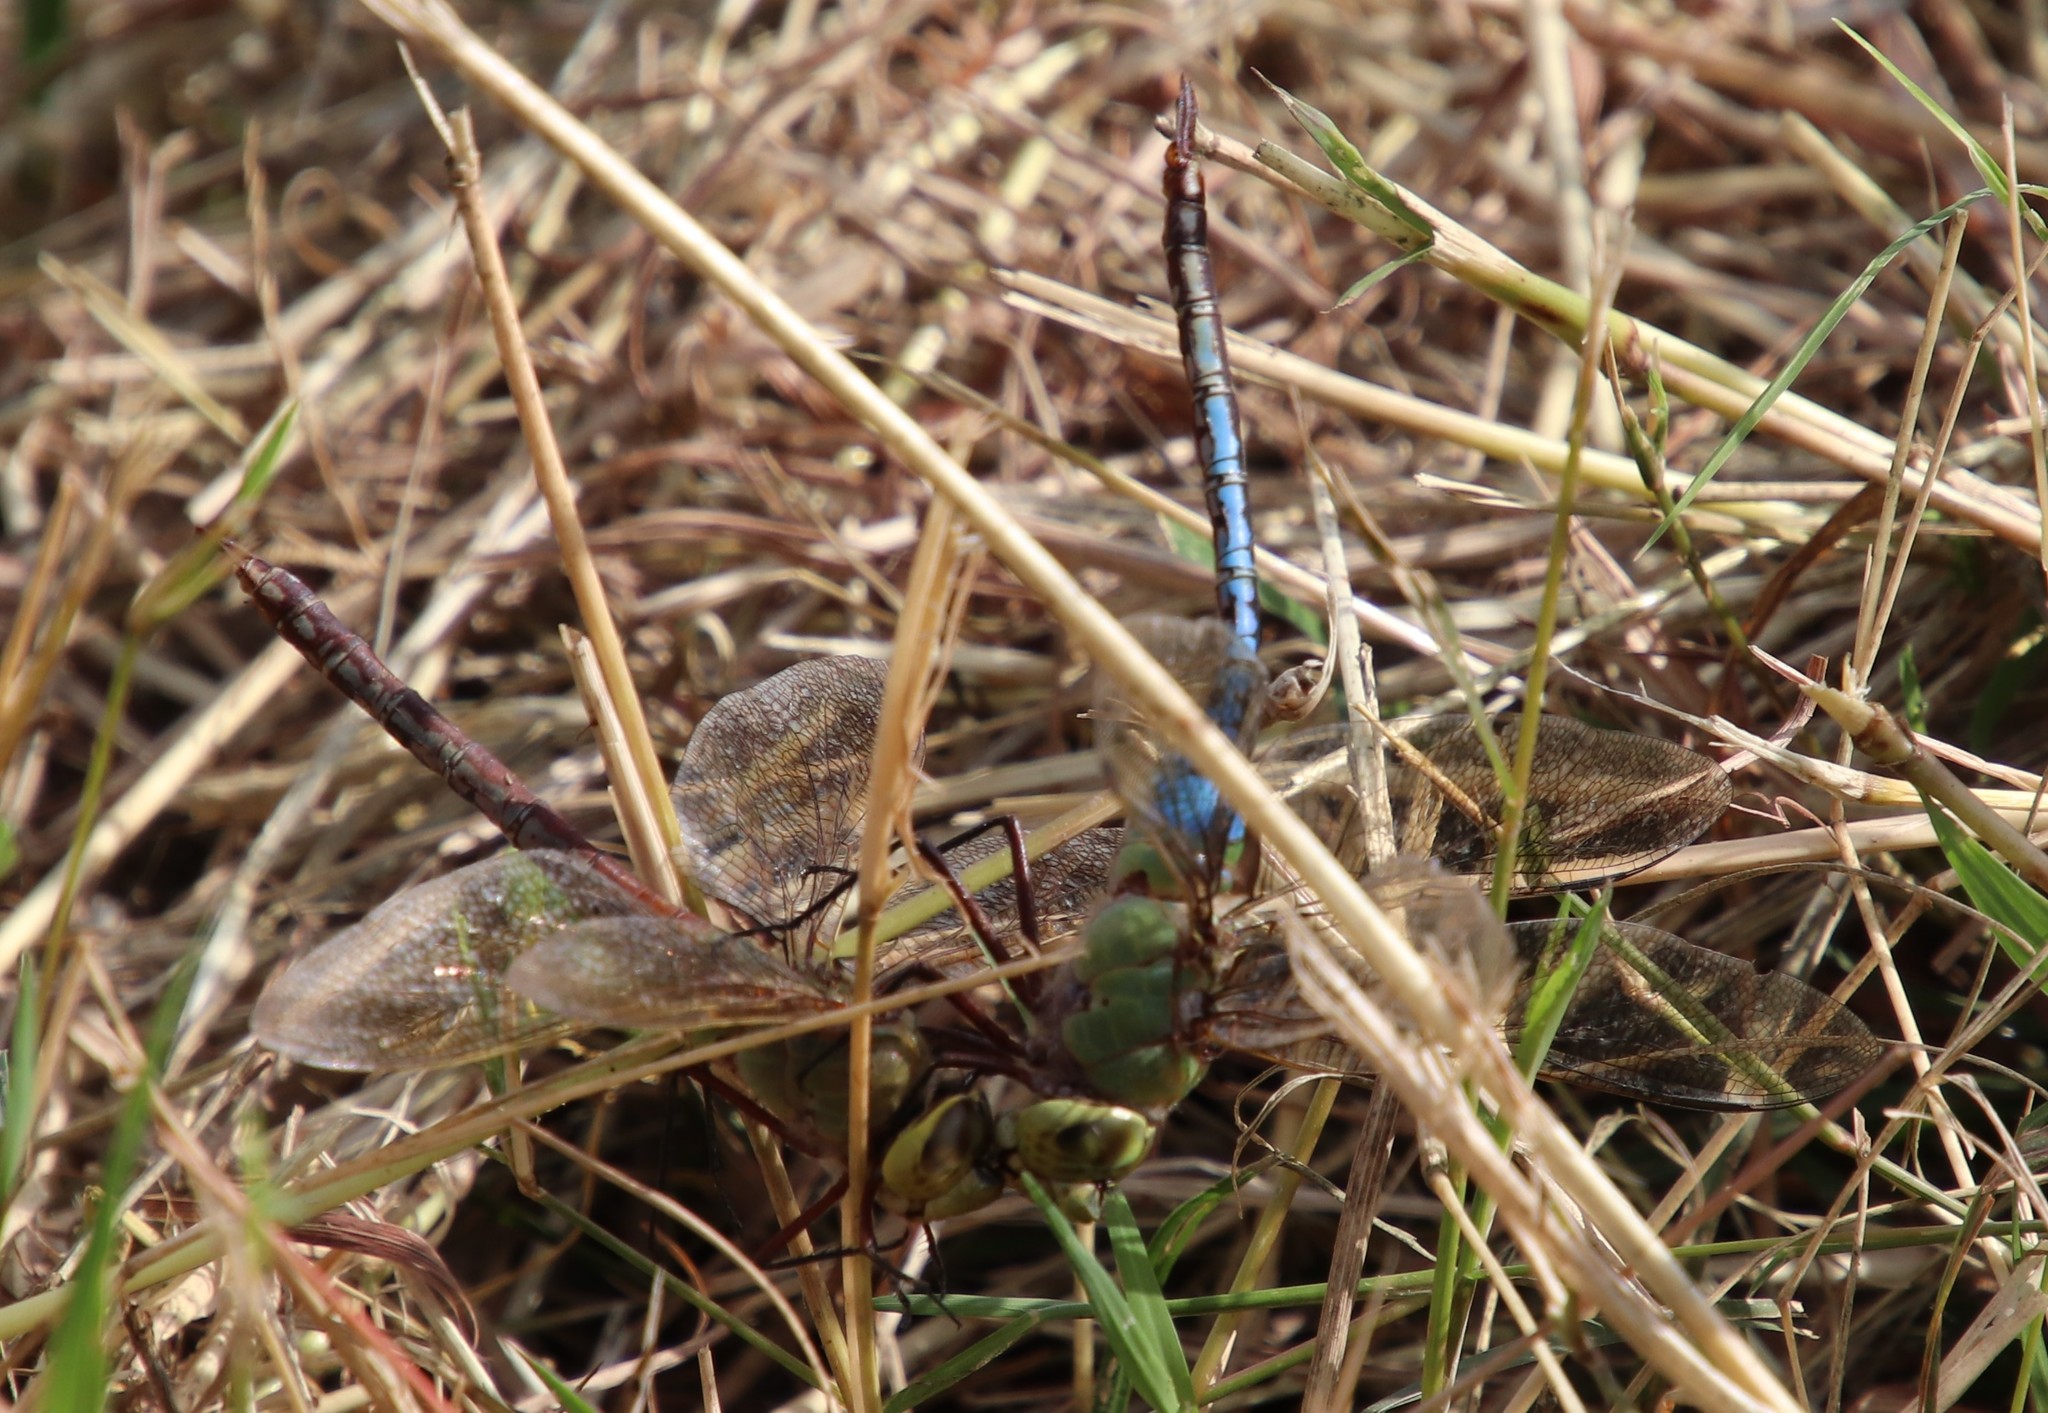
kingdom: Animalia
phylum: Arthropoda
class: Insecta
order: Odonata
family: Aeshnidae
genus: Anax
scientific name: Anax junius
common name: Common green darner
